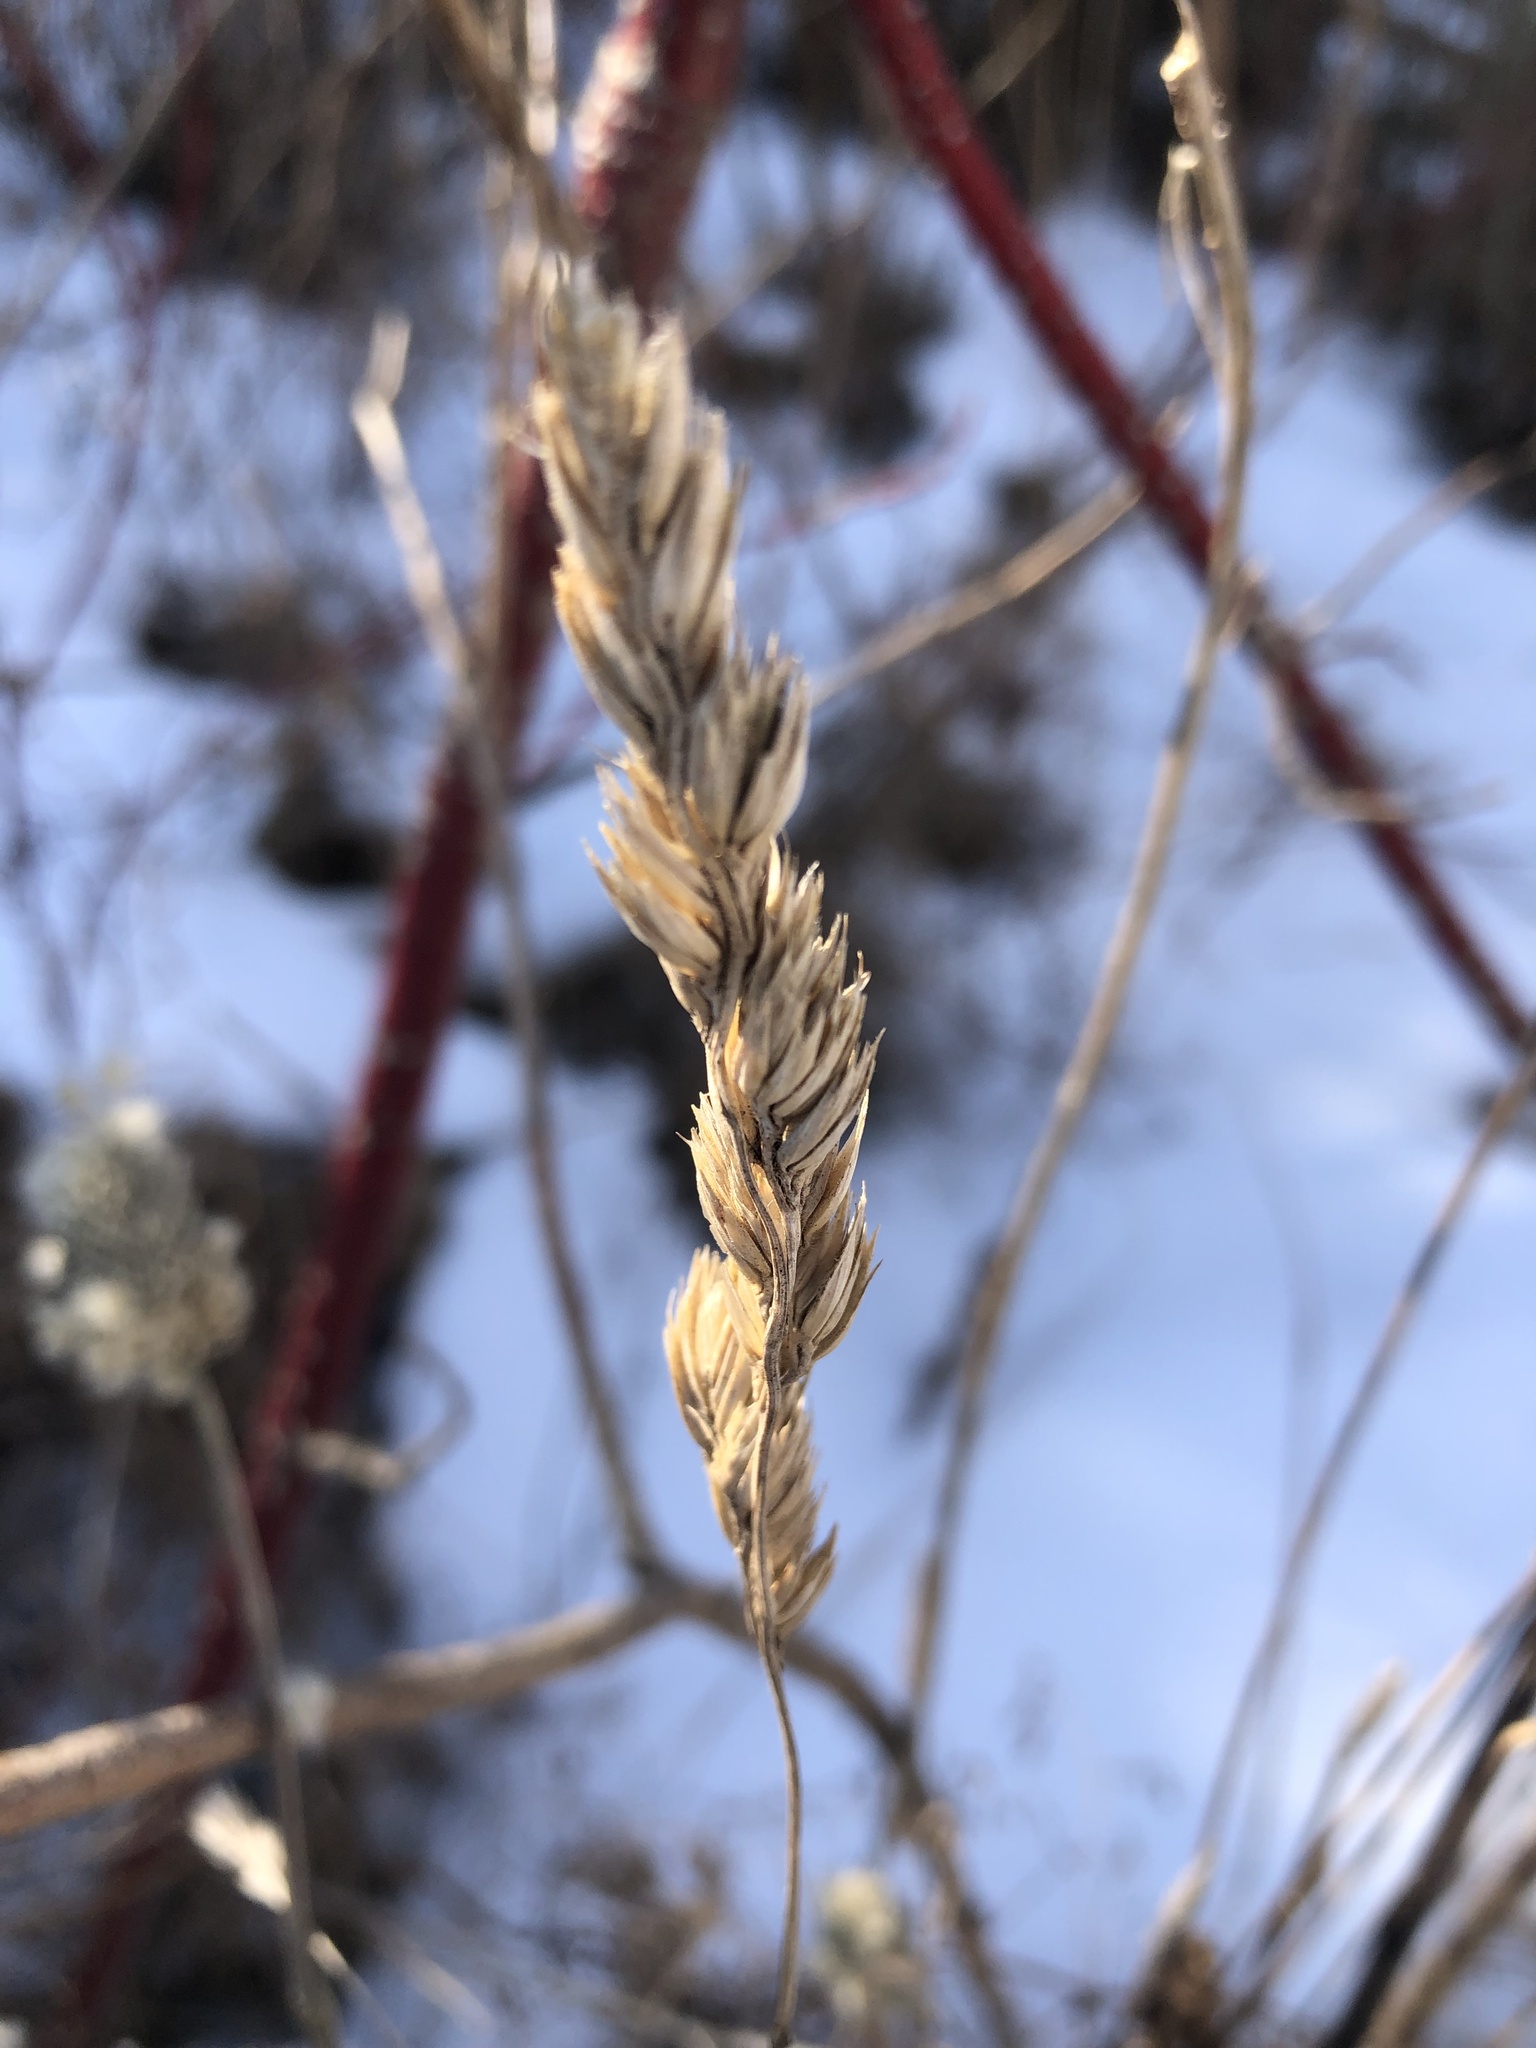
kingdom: Plantae
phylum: Tracheophyta
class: Liliopsida
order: Poales
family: Poaceae
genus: Dactylis
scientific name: Dactylis glomerata
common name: Orchardgrass
